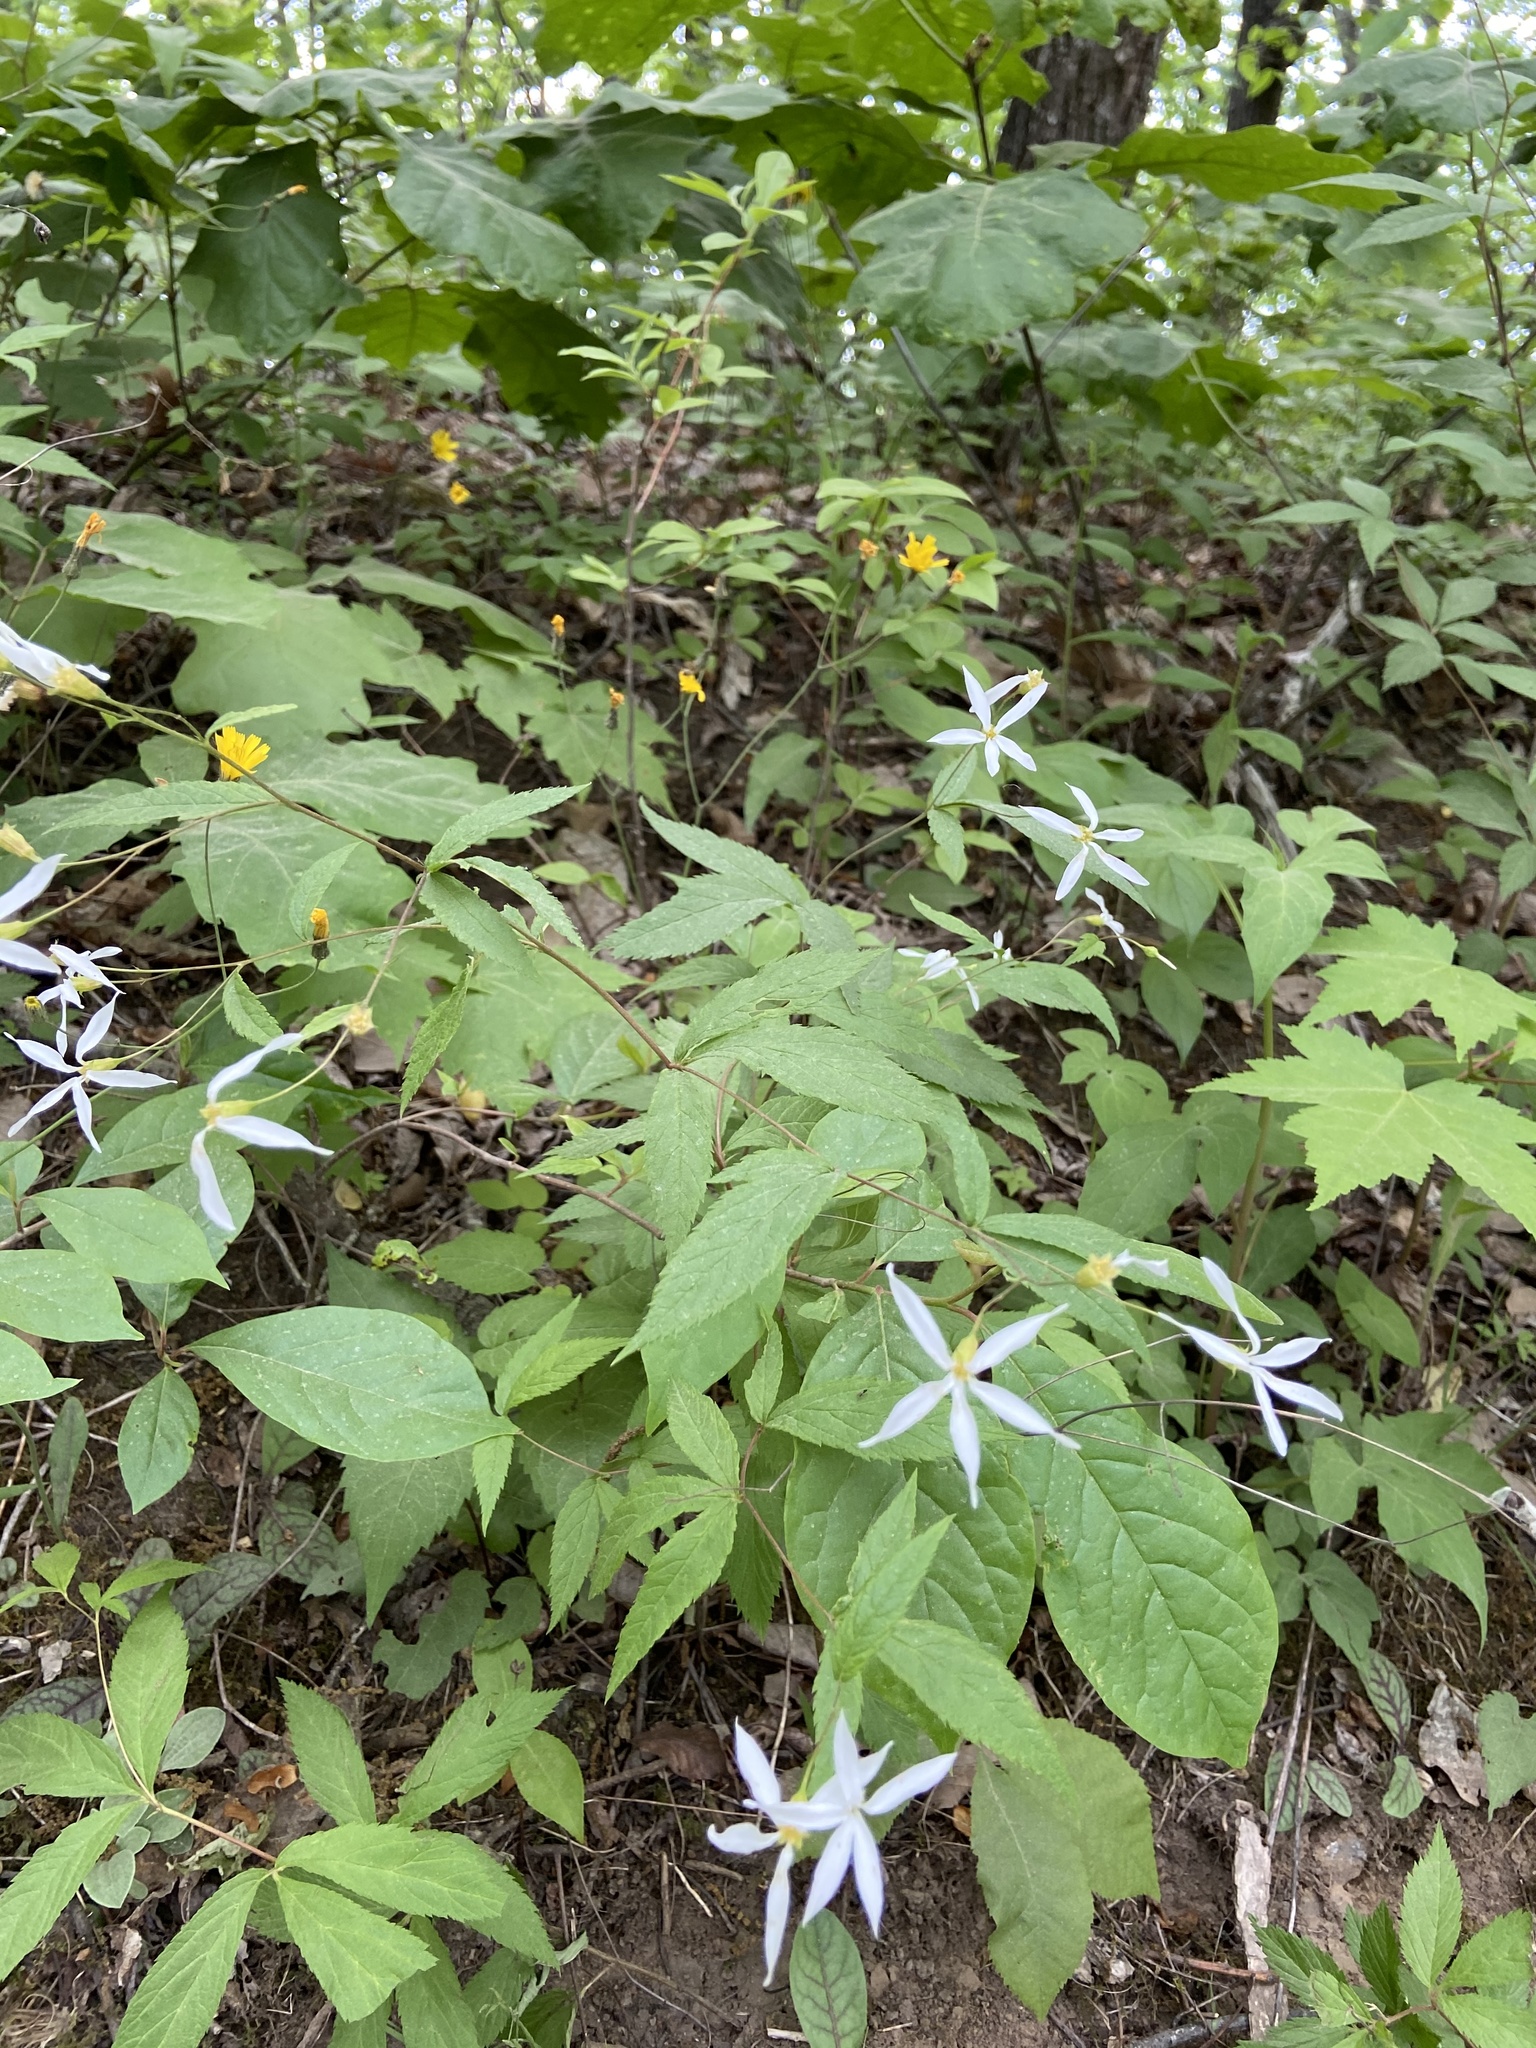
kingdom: Plantae
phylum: Tracheophyta
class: Magnoliopsida
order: Rosales
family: Rosaceae
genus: Gillenia
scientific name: Gillenia trifoliata
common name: Bowman's-root
